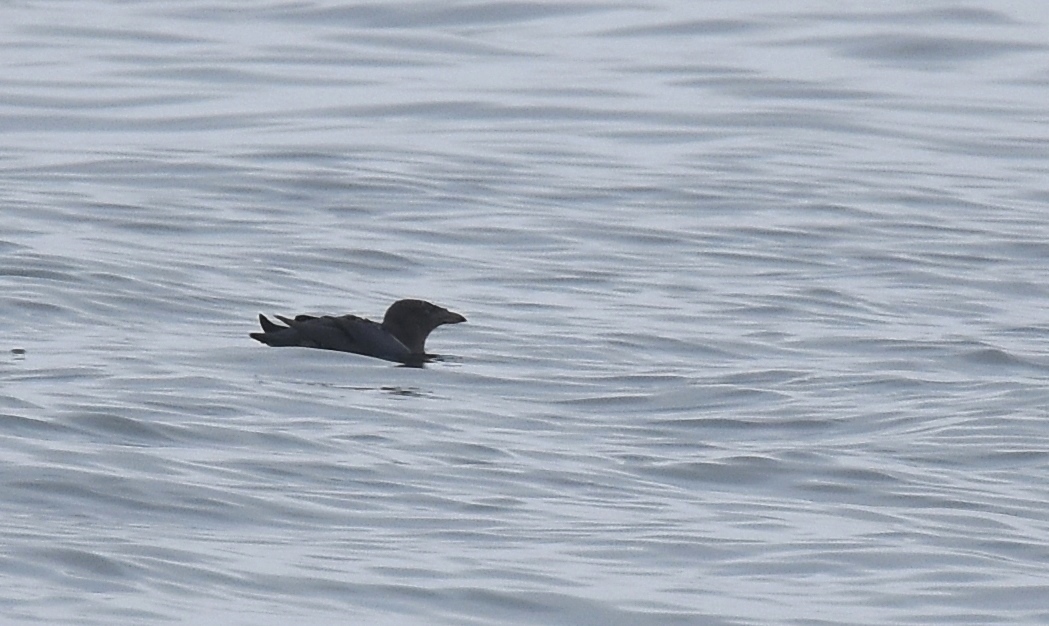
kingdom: Animalia
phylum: Chordata
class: Aves
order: Charadriiformes
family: Alcidae
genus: Cerorhinca
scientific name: Cerorhinca monocerata
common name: Rhinoceros auklet
